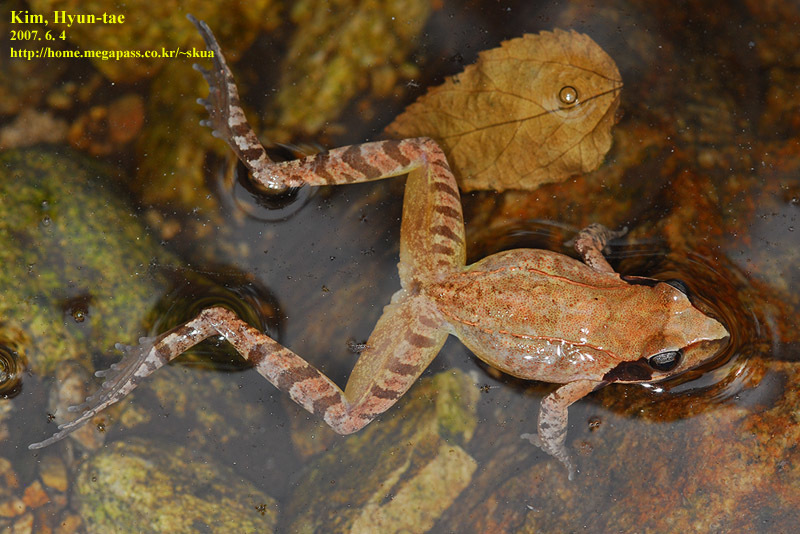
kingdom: Animalia
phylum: Chordata
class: Amphibia
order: Anura
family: Ranidae
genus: Rana
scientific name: Rana uenoi
